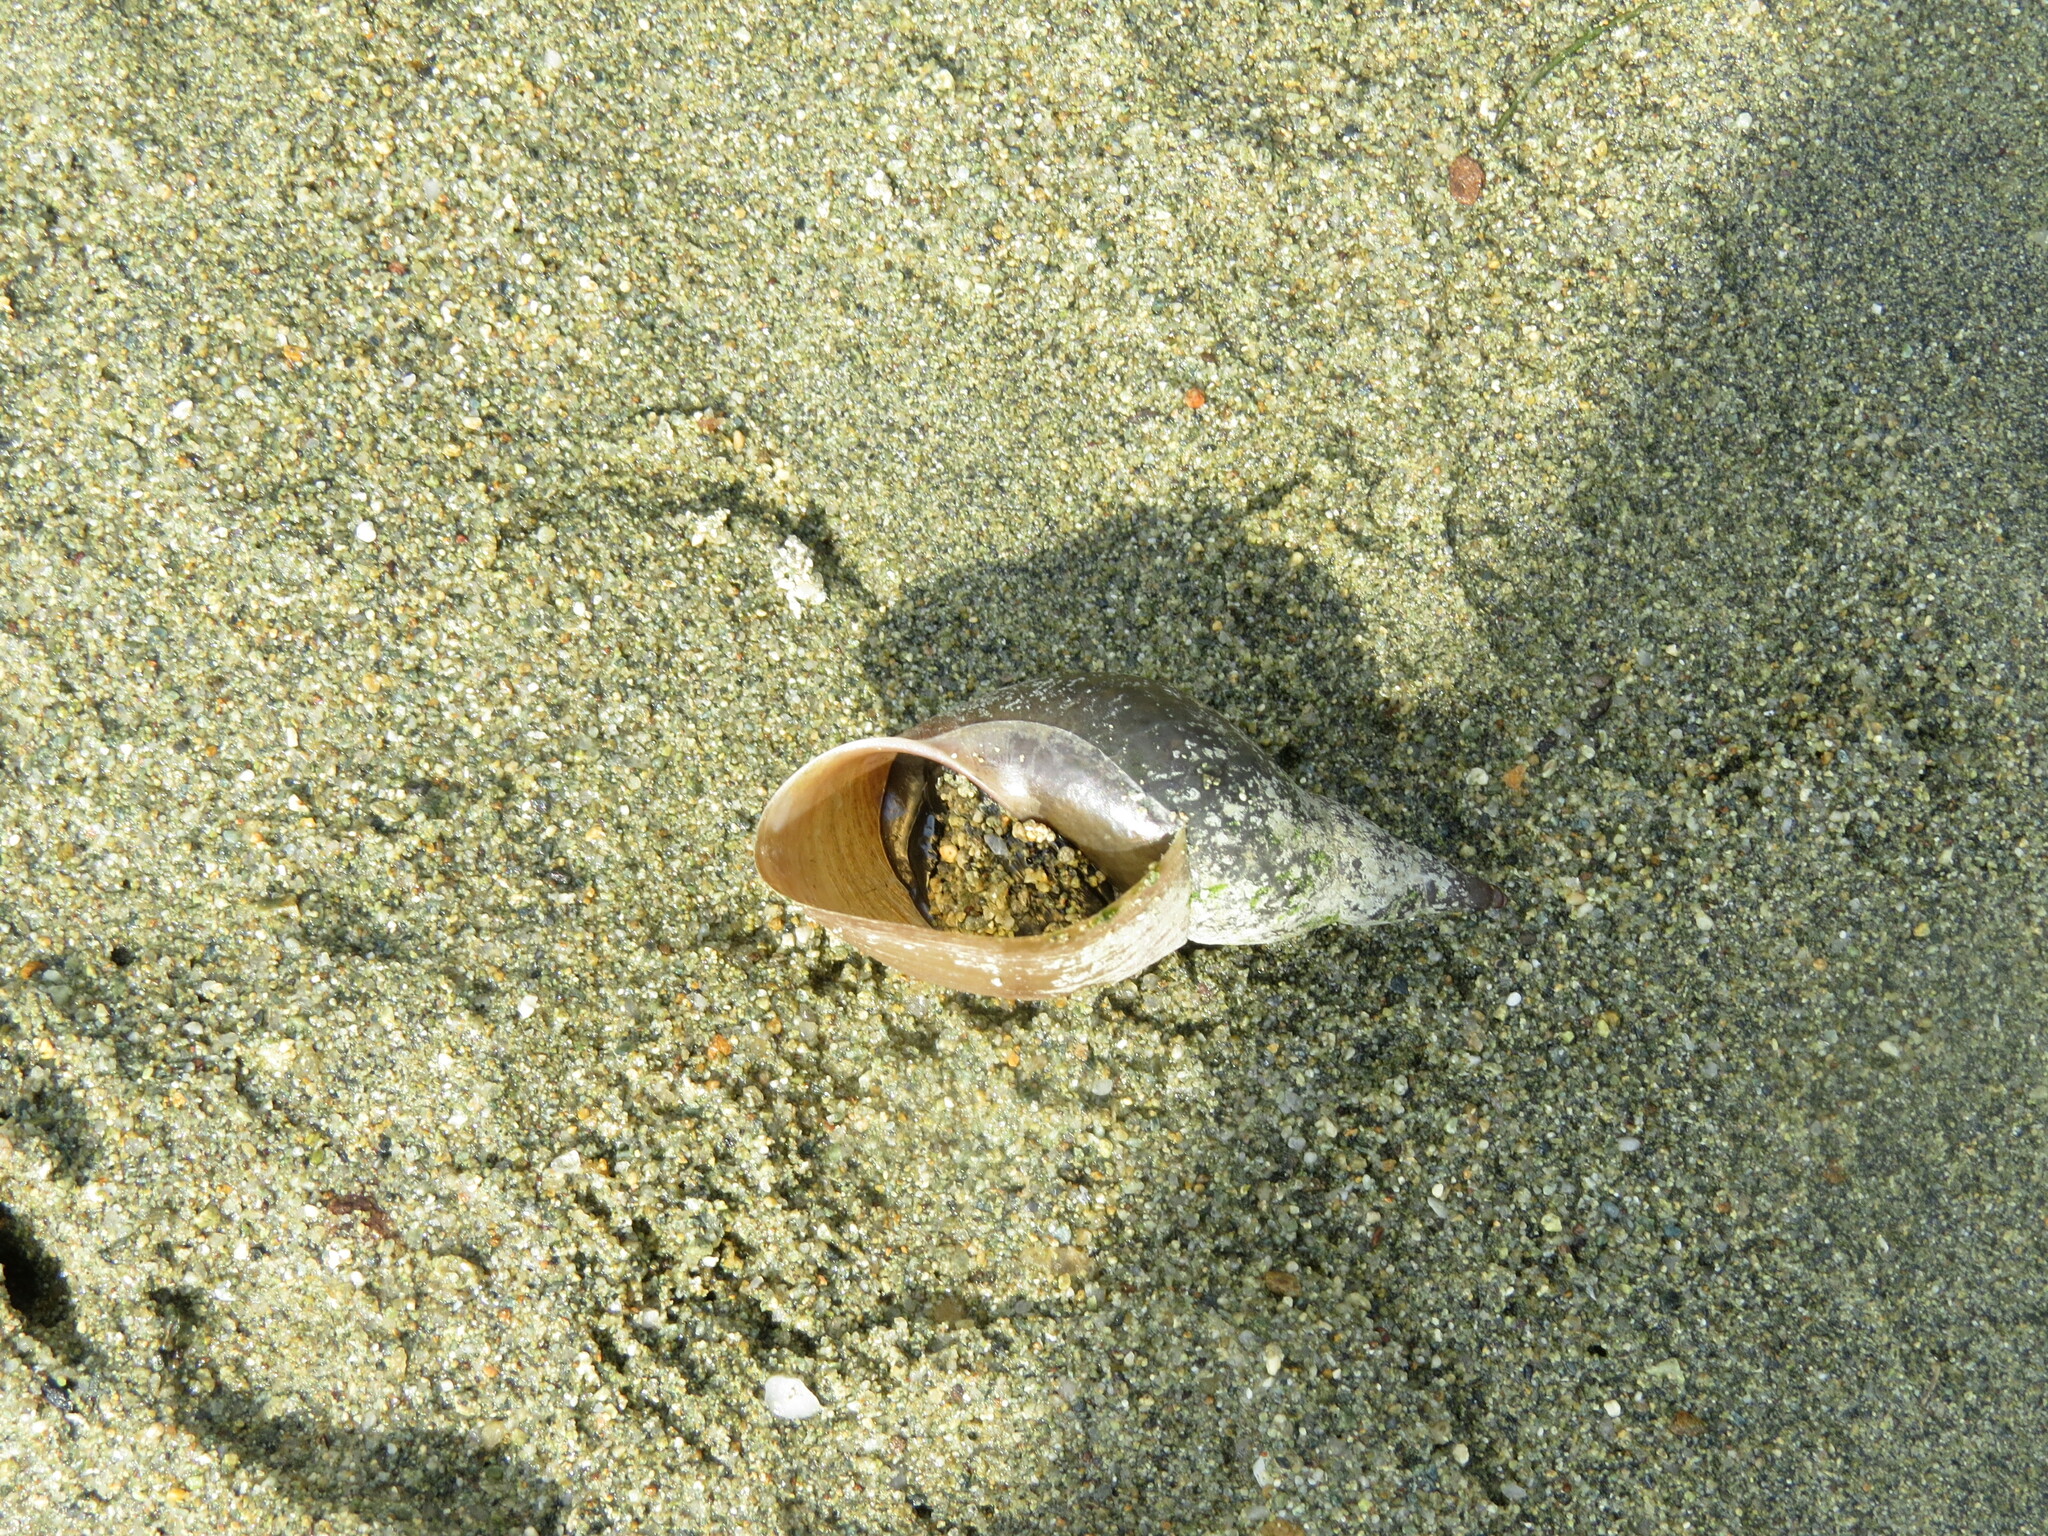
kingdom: Animalia
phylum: Mollusca
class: Gastropoda
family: Lymnaeidae
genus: Lymnaea
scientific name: Lymnaea stagnalis
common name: Great pond snail
